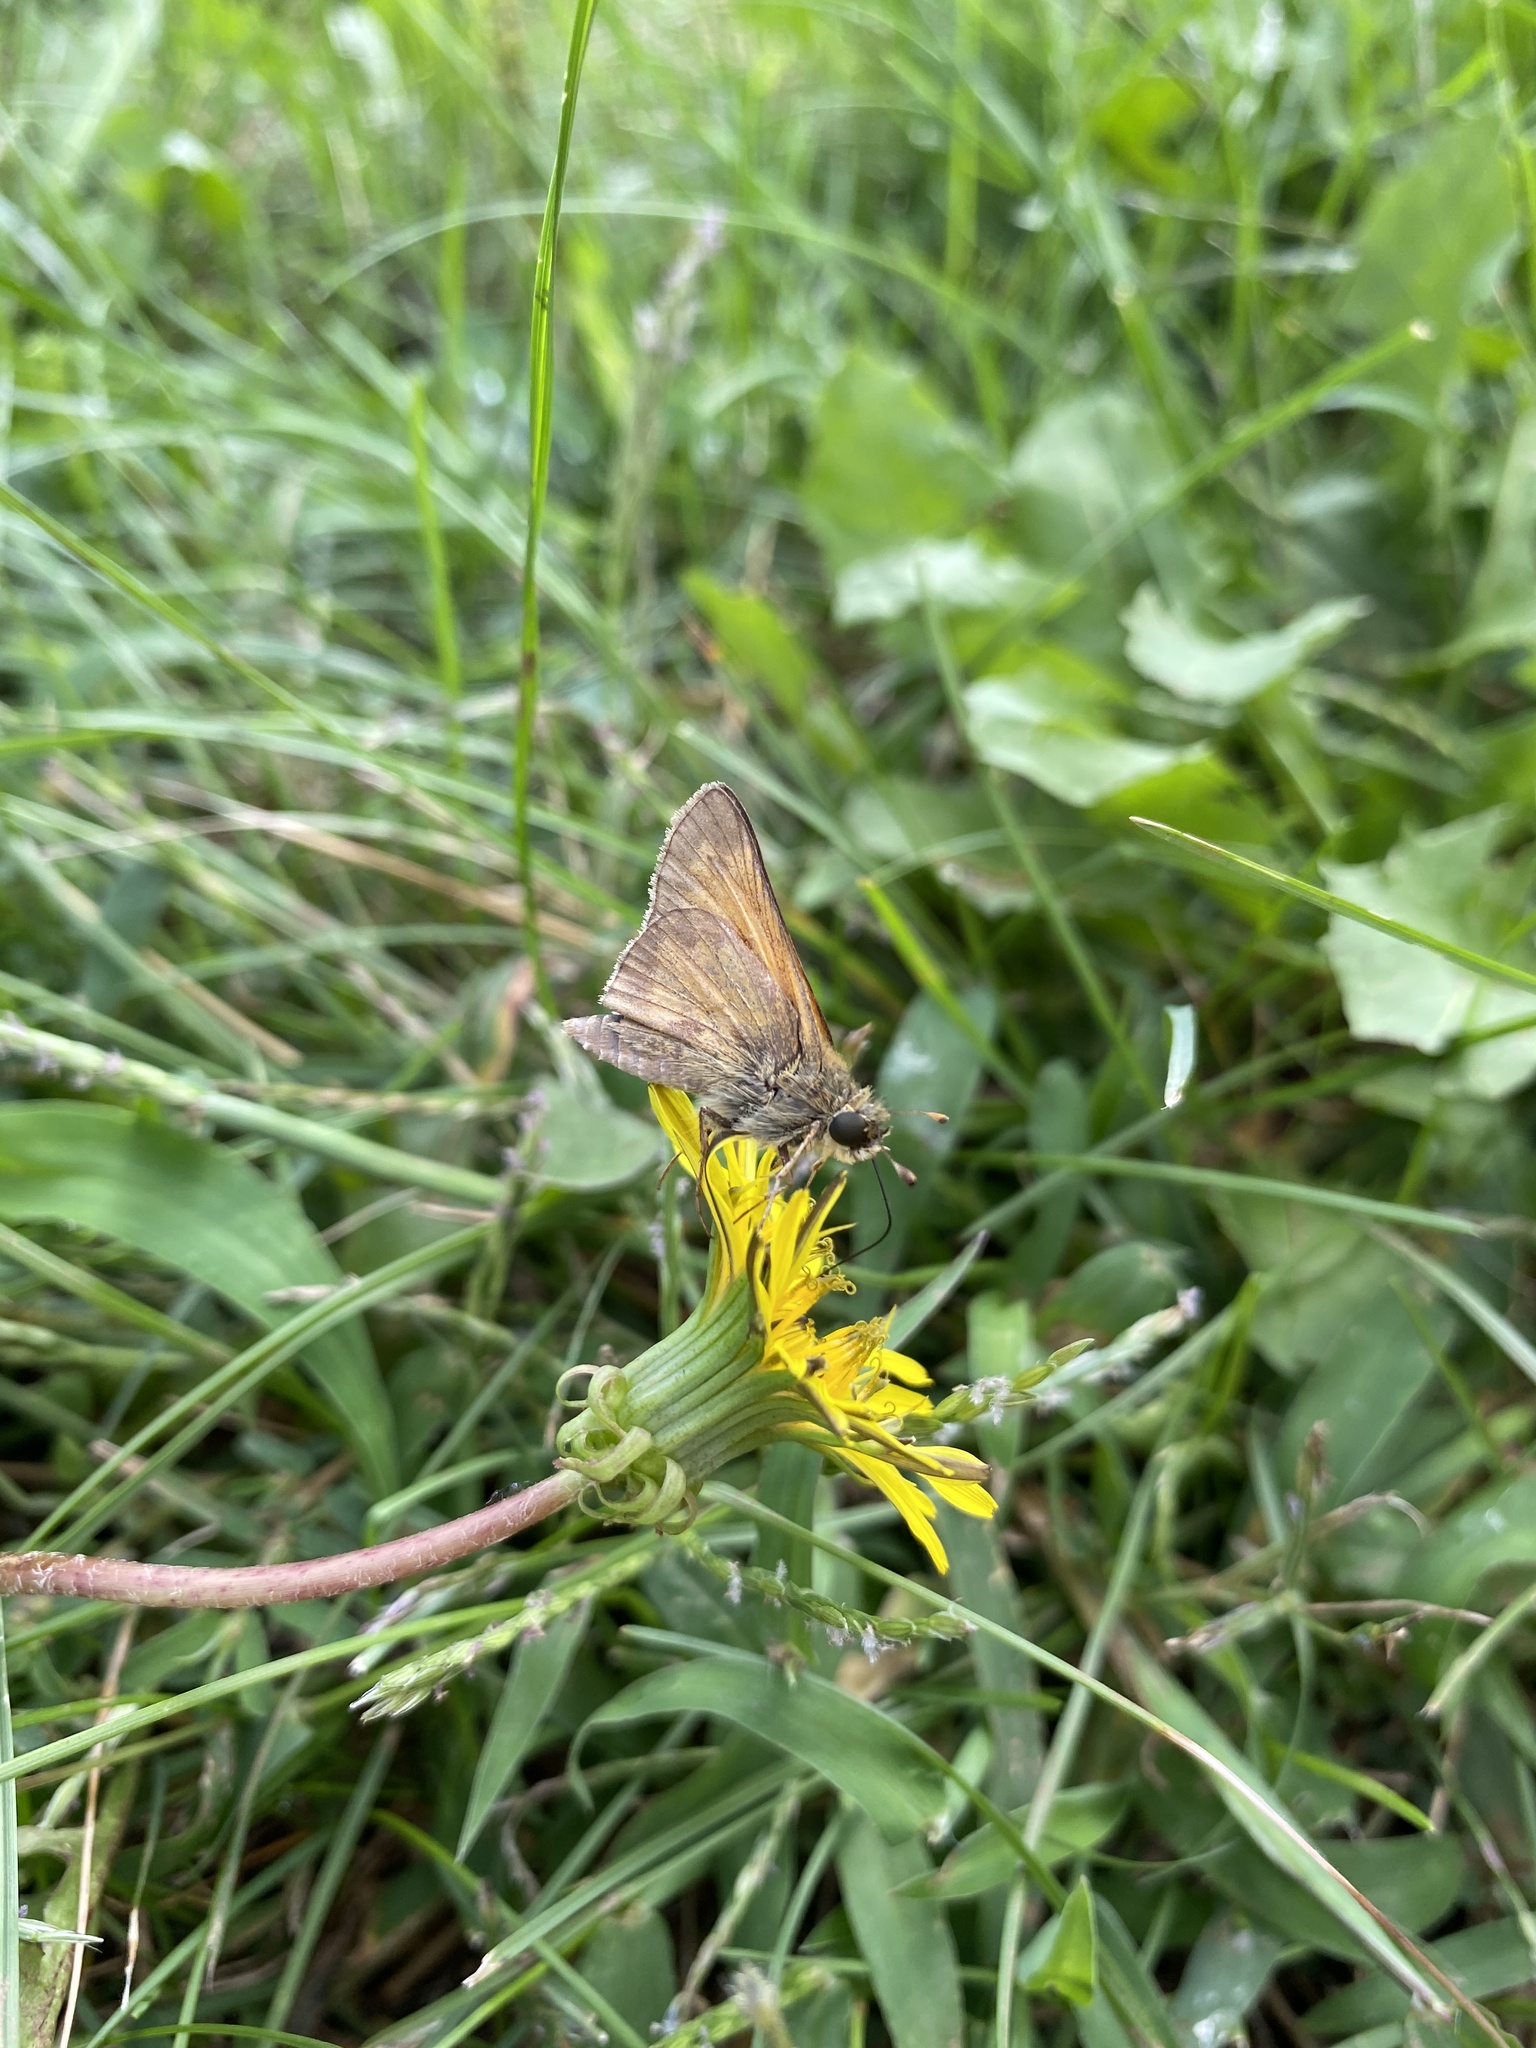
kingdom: Animalia
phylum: Arthropoda
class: Insecta
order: Lepidoptera
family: Hesperiidae
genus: Atalopedes
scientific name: Atalopedes
